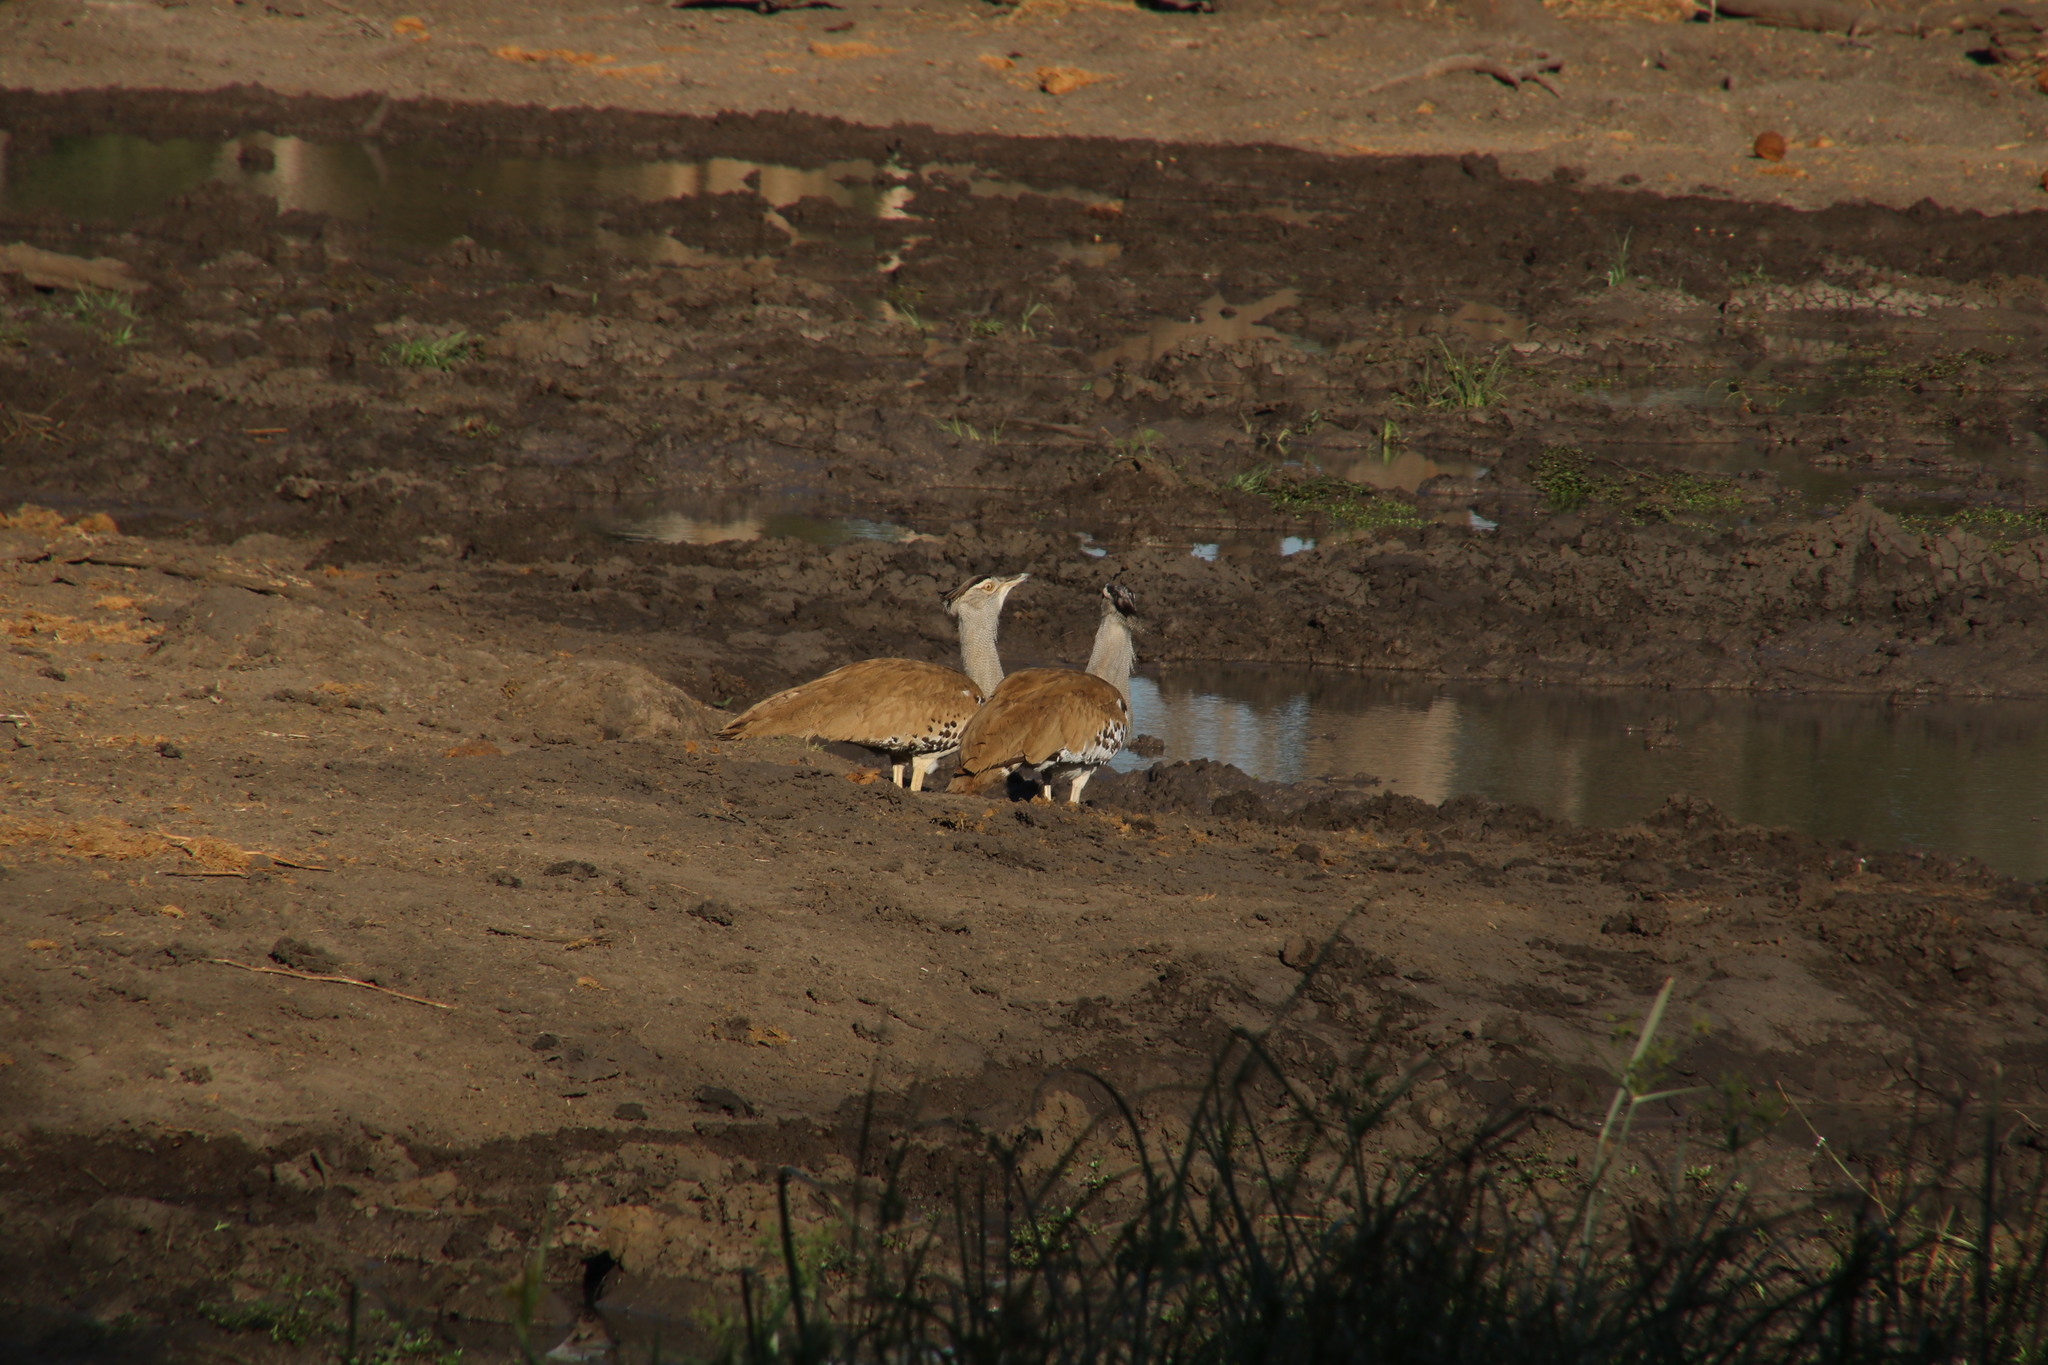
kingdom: Animalia
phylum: Chordata
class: Aves
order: Otidiformes
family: Otididae
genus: Ardeotis
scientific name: Ardeotis kori
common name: Kori bustard
